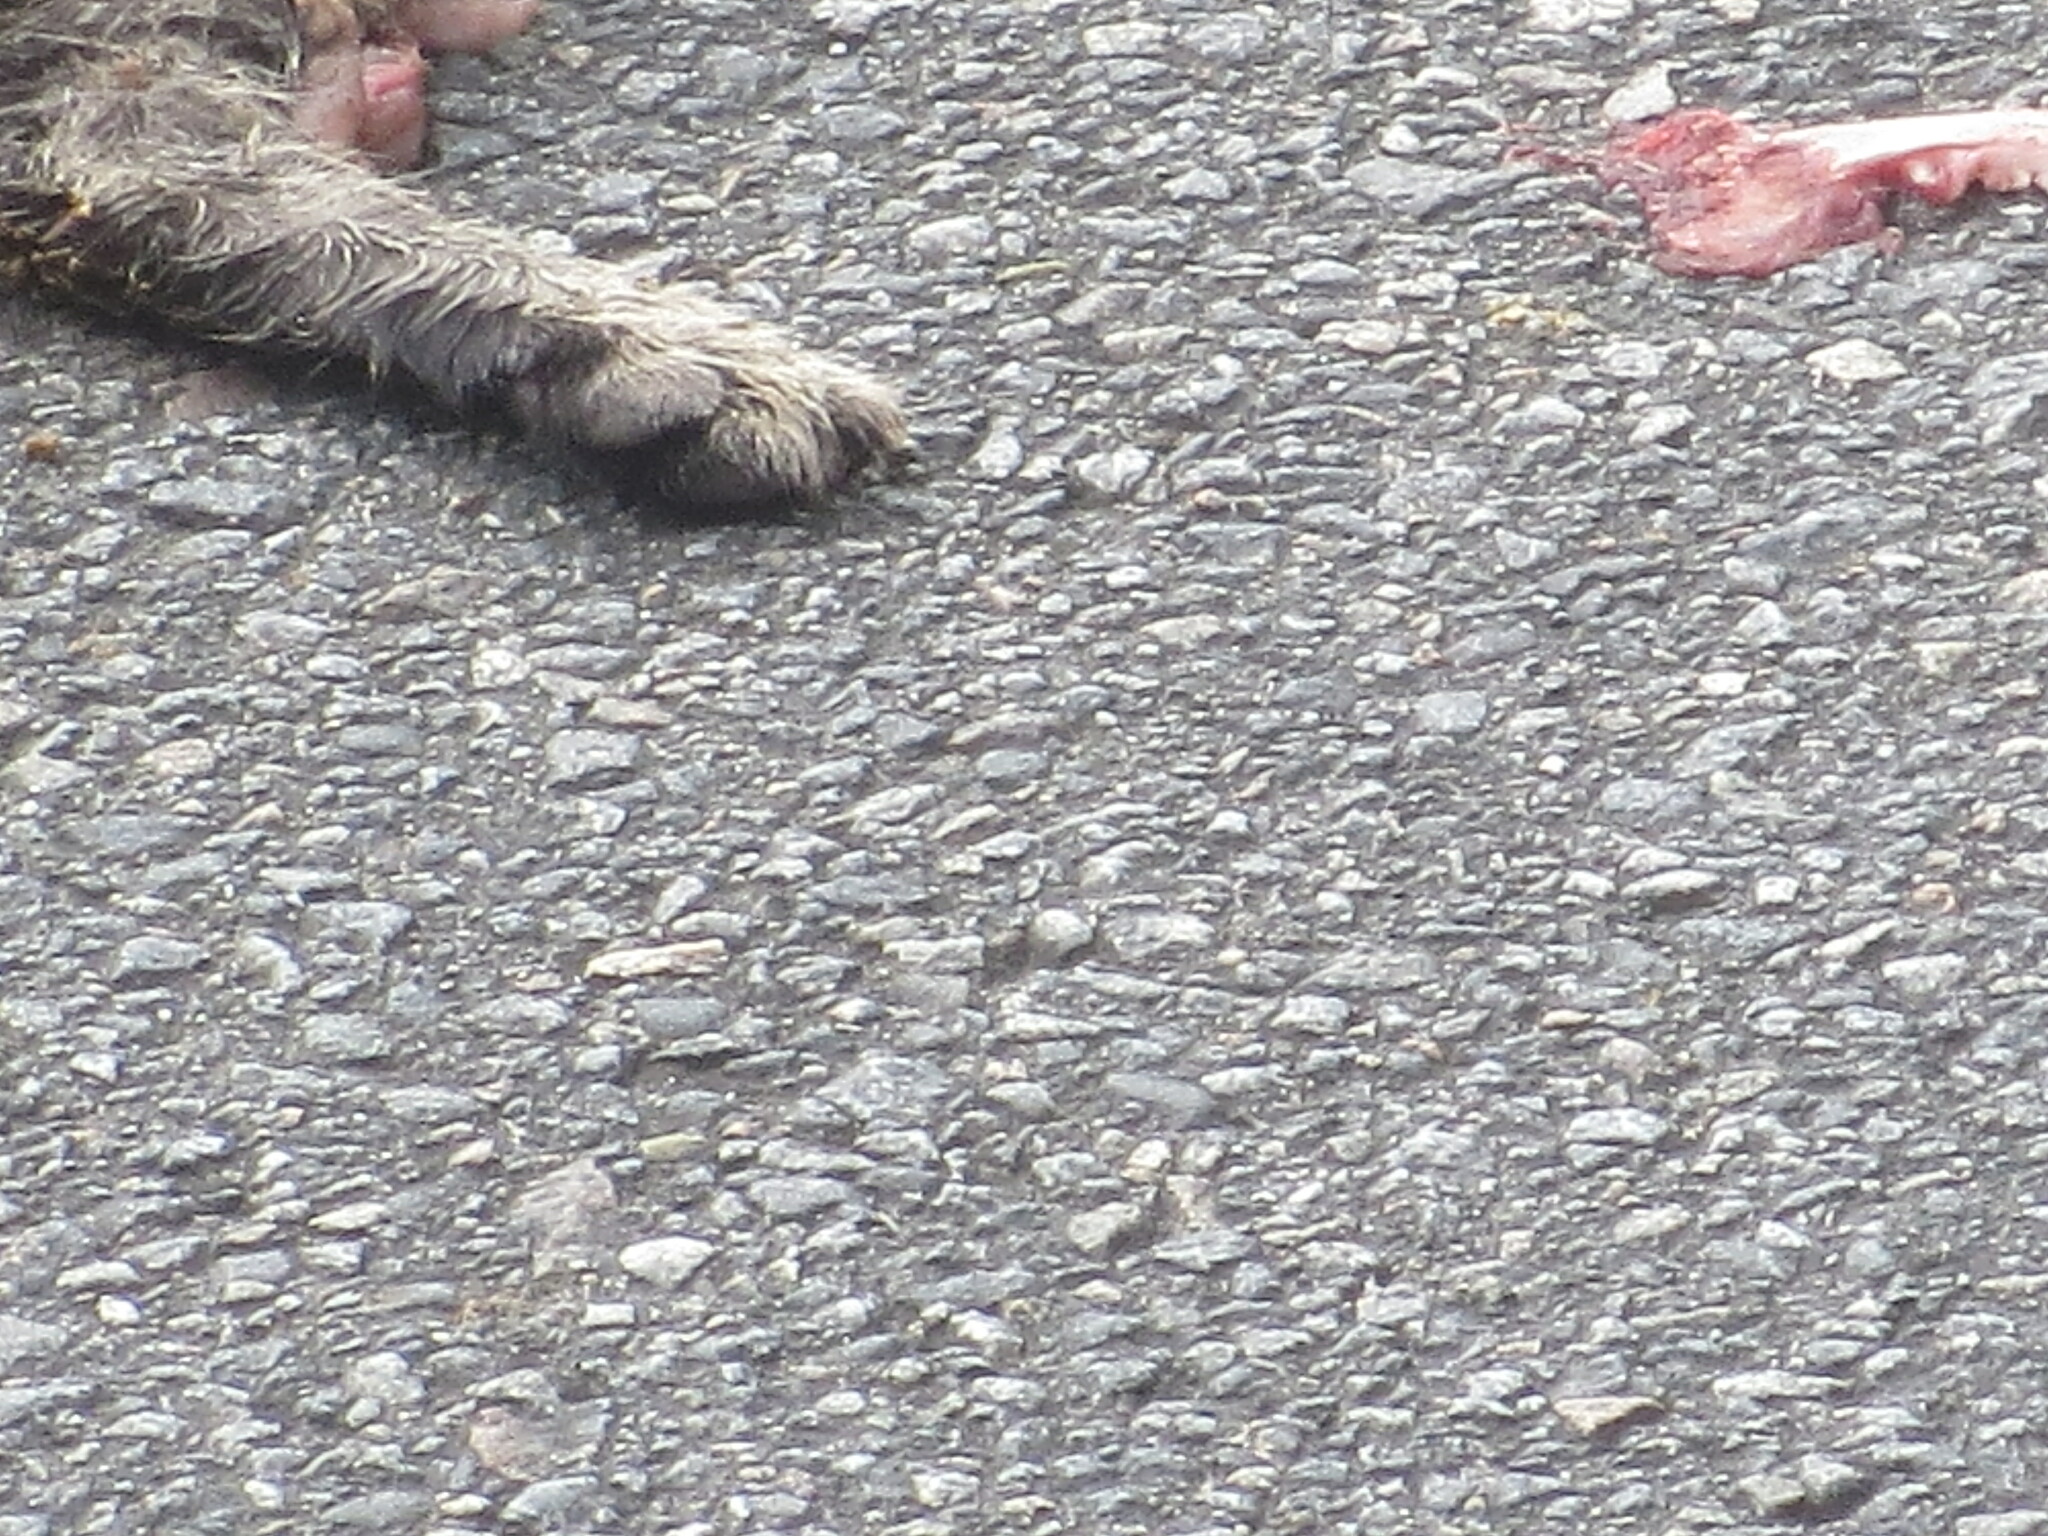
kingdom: Animalia
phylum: Chordata
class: Mammalia
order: Carnivora
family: Felidae
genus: Felis
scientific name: Felis catus
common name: Domestic cat
